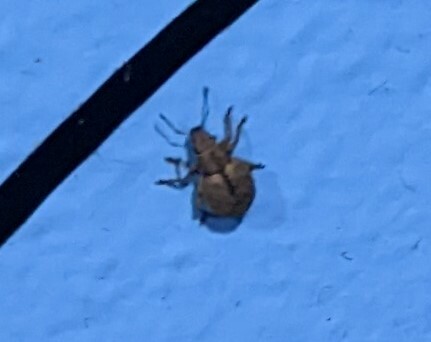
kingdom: Animalia
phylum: Arthropoda
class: Insecta
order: Coleoptera
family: Curculionidae
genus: Strophosoma
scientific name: Strophosoma melanogrammum
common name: Weevil
